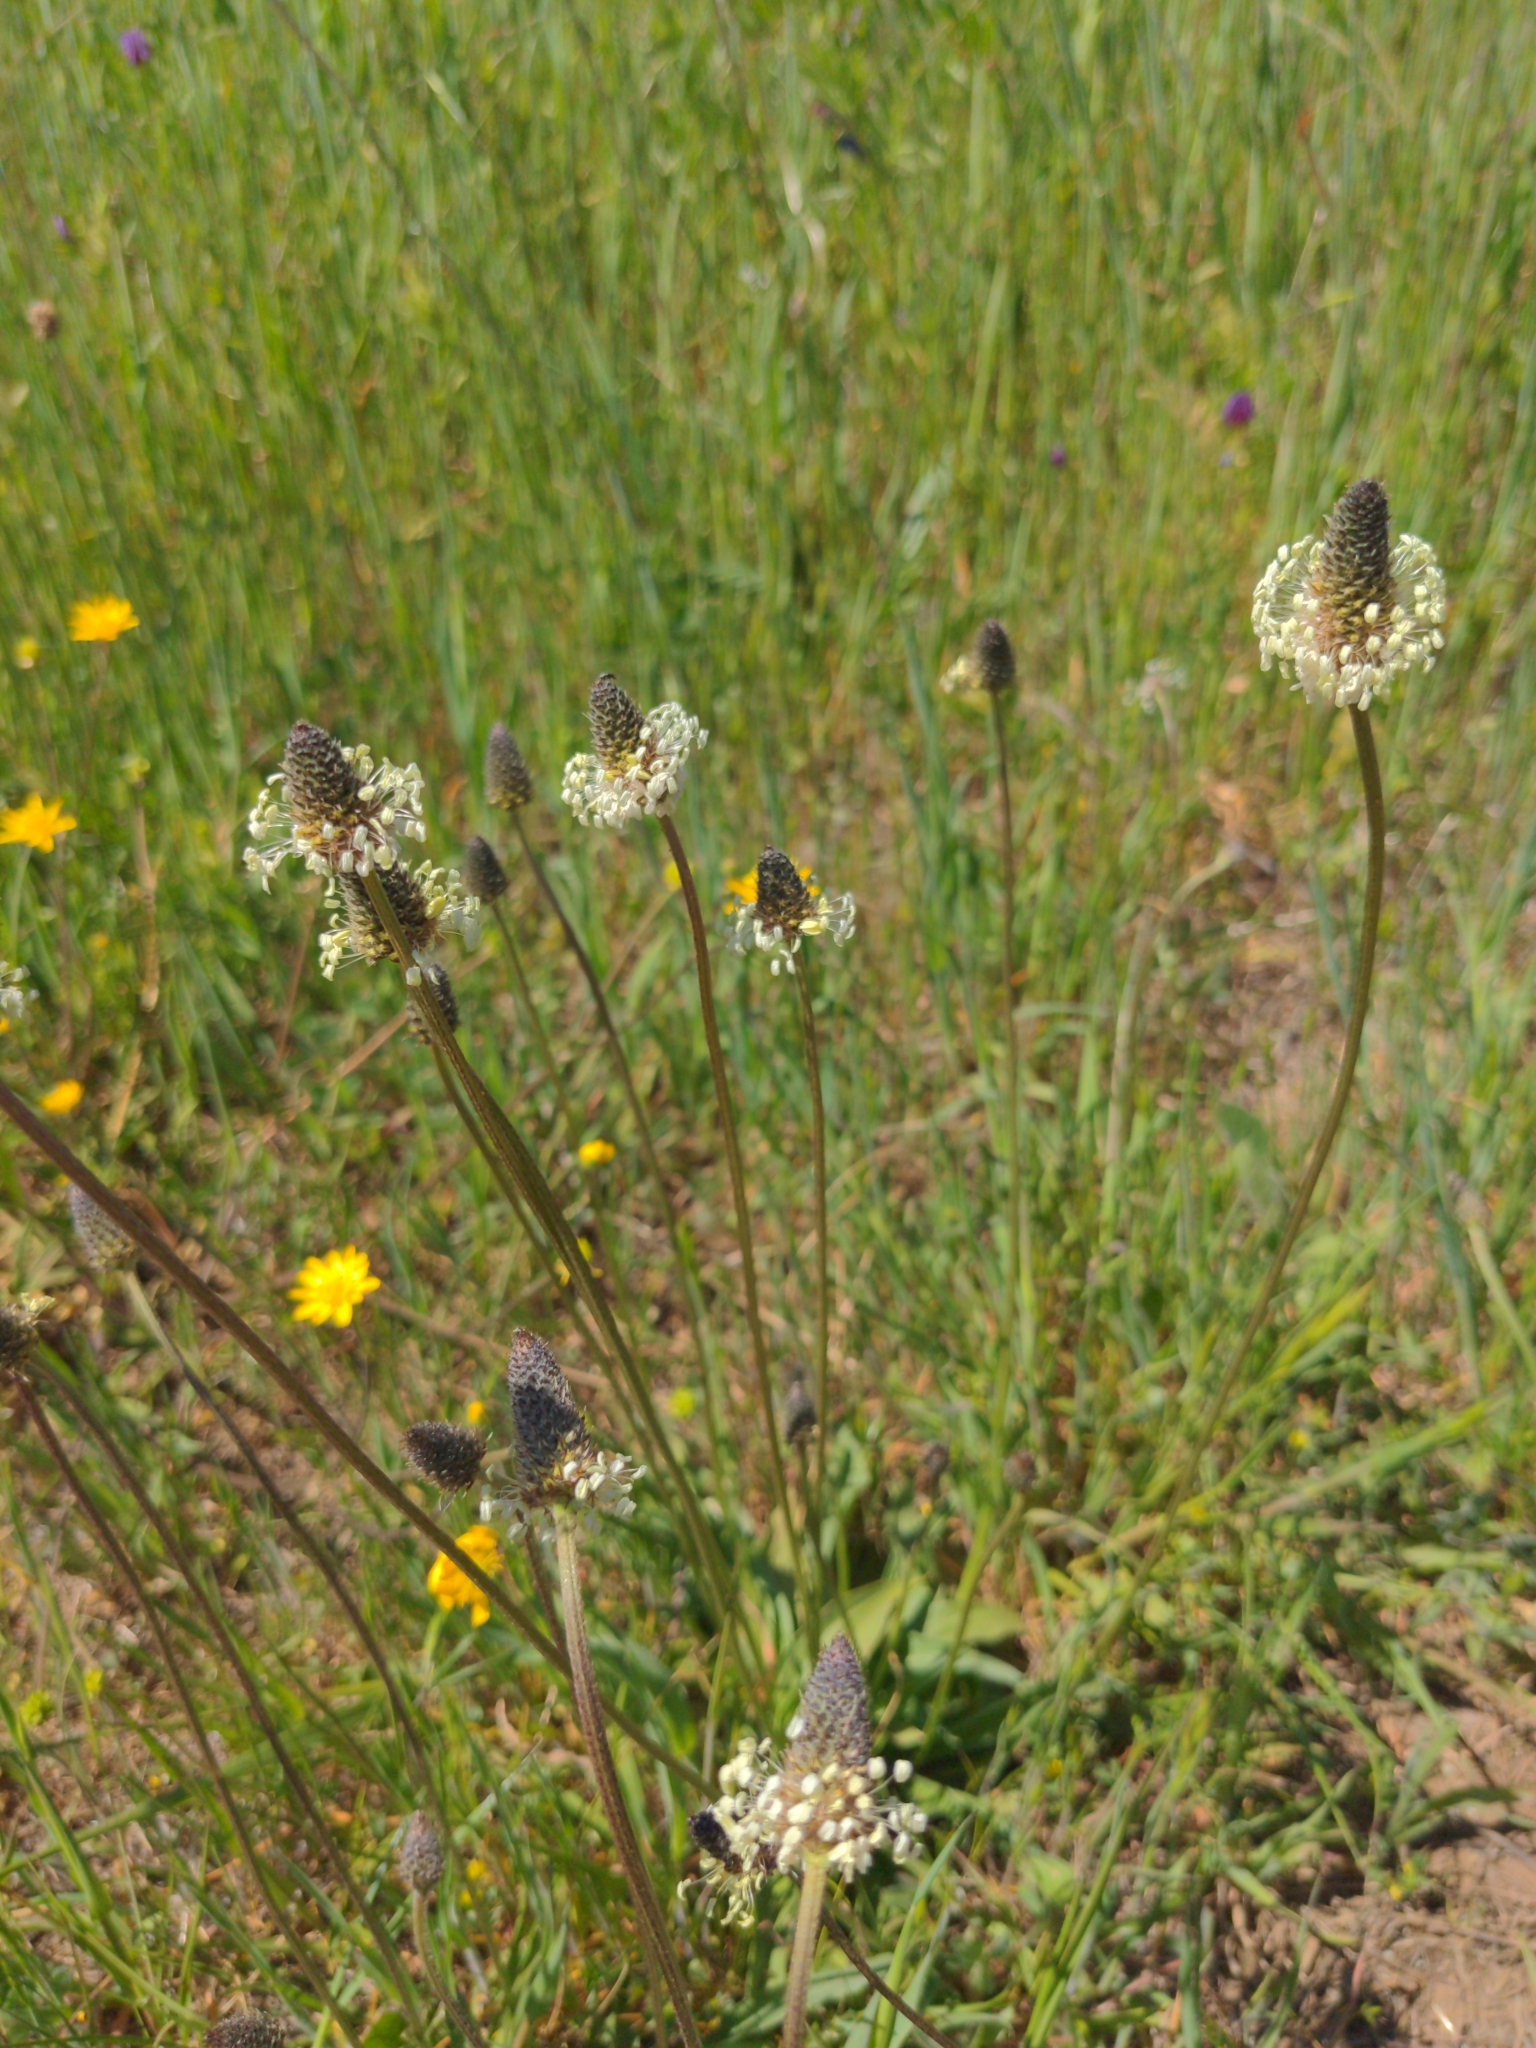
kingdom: Plantae
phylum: Tracheophyta
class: Magnoliopsida
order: Lamiales
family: Plantaginaceae
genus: Plantago
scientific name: Plantago lanceolata
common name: Ribwort plantain
